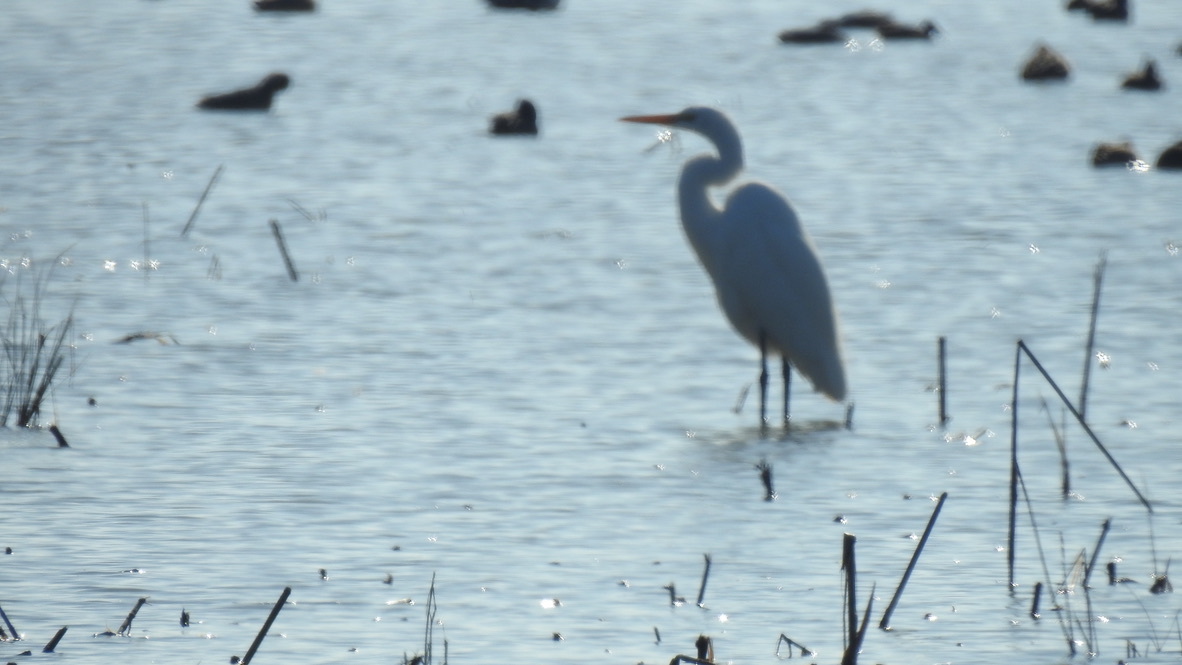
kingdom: Animalia
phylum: Chordata
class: Aves
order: Pelecaniformes
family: Ardeidae
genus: Ardea
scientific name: Ardea alba
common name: Great egret
